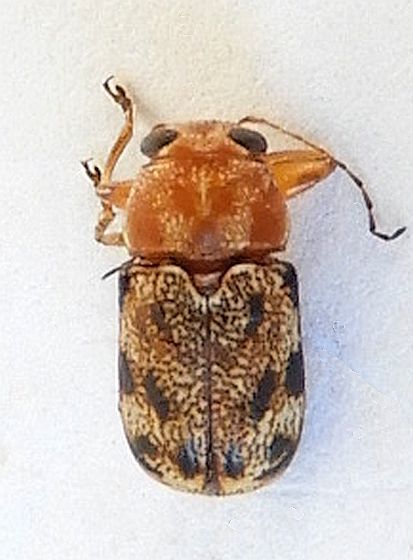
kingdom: Animalia
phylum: Arthropoda
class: Insecta
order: Coleoptera
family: Chrysomelidae
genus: Pachybrachis
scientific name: Pachybrachis nobilis
